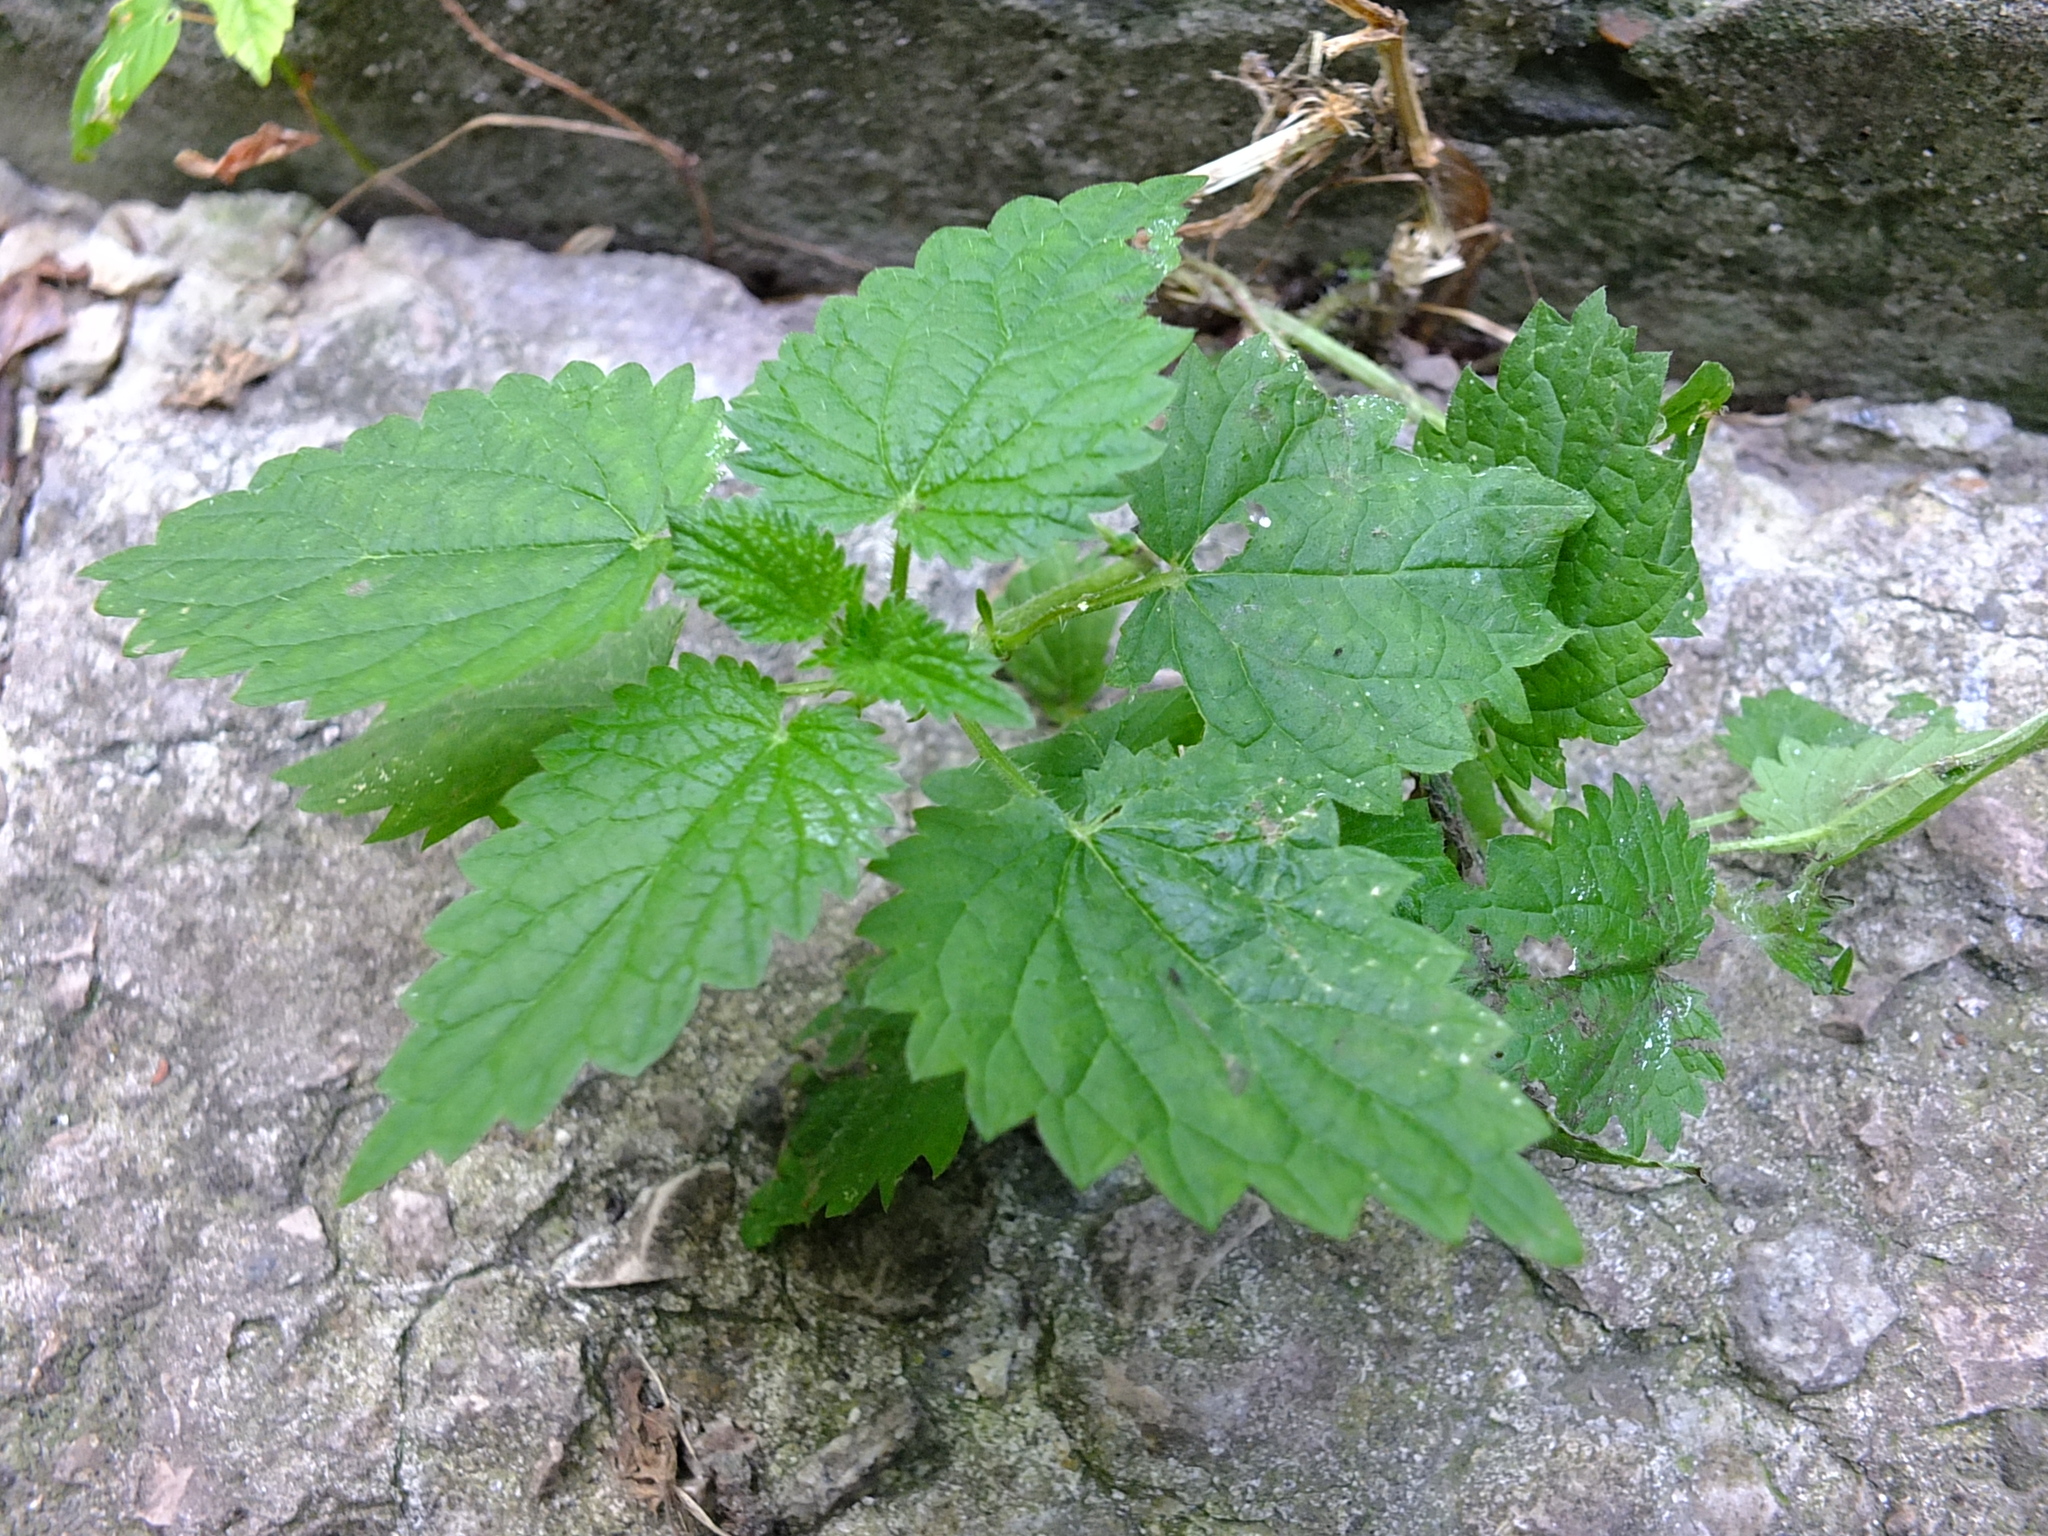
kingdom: Plantae
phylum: Tracheophyta
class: Magnoliopsida
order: Rosales
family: Urticaceae
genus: Urtica
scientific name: Urtica dioica
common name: Common nettle
